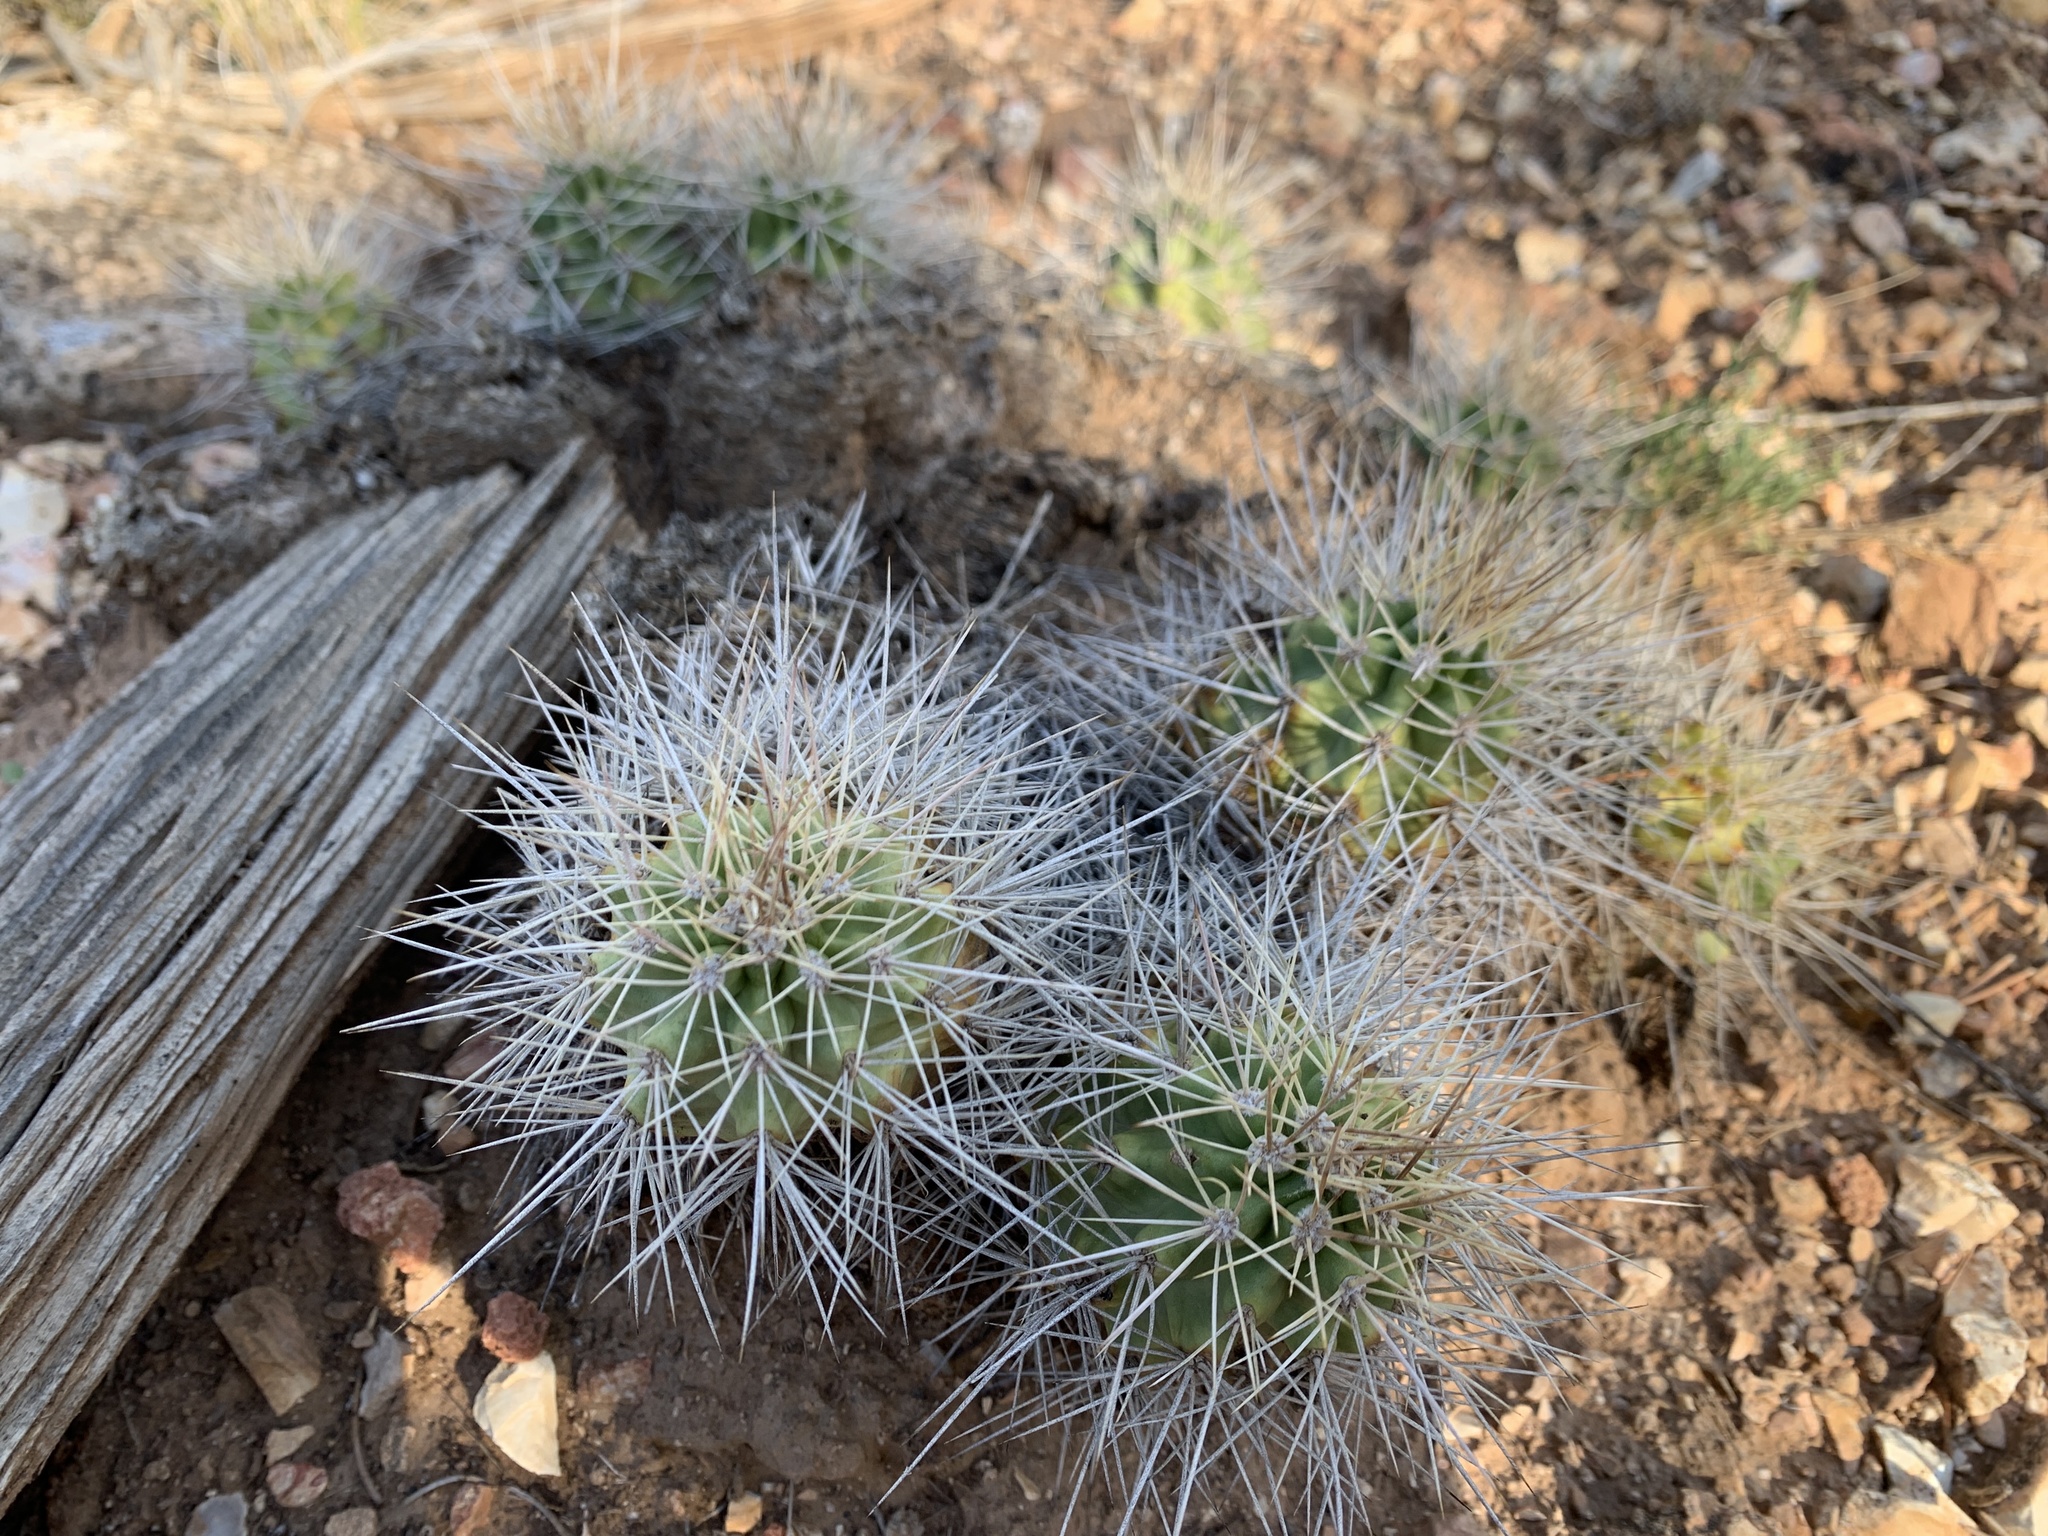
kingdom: Plantae
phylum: Tracheophyta
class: Magnoliopsida
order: Caryophyllales
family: Cactaceae
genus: Echinocereus
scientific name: Echinocereus triglochidiatus
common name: Claretcup hedgehog
